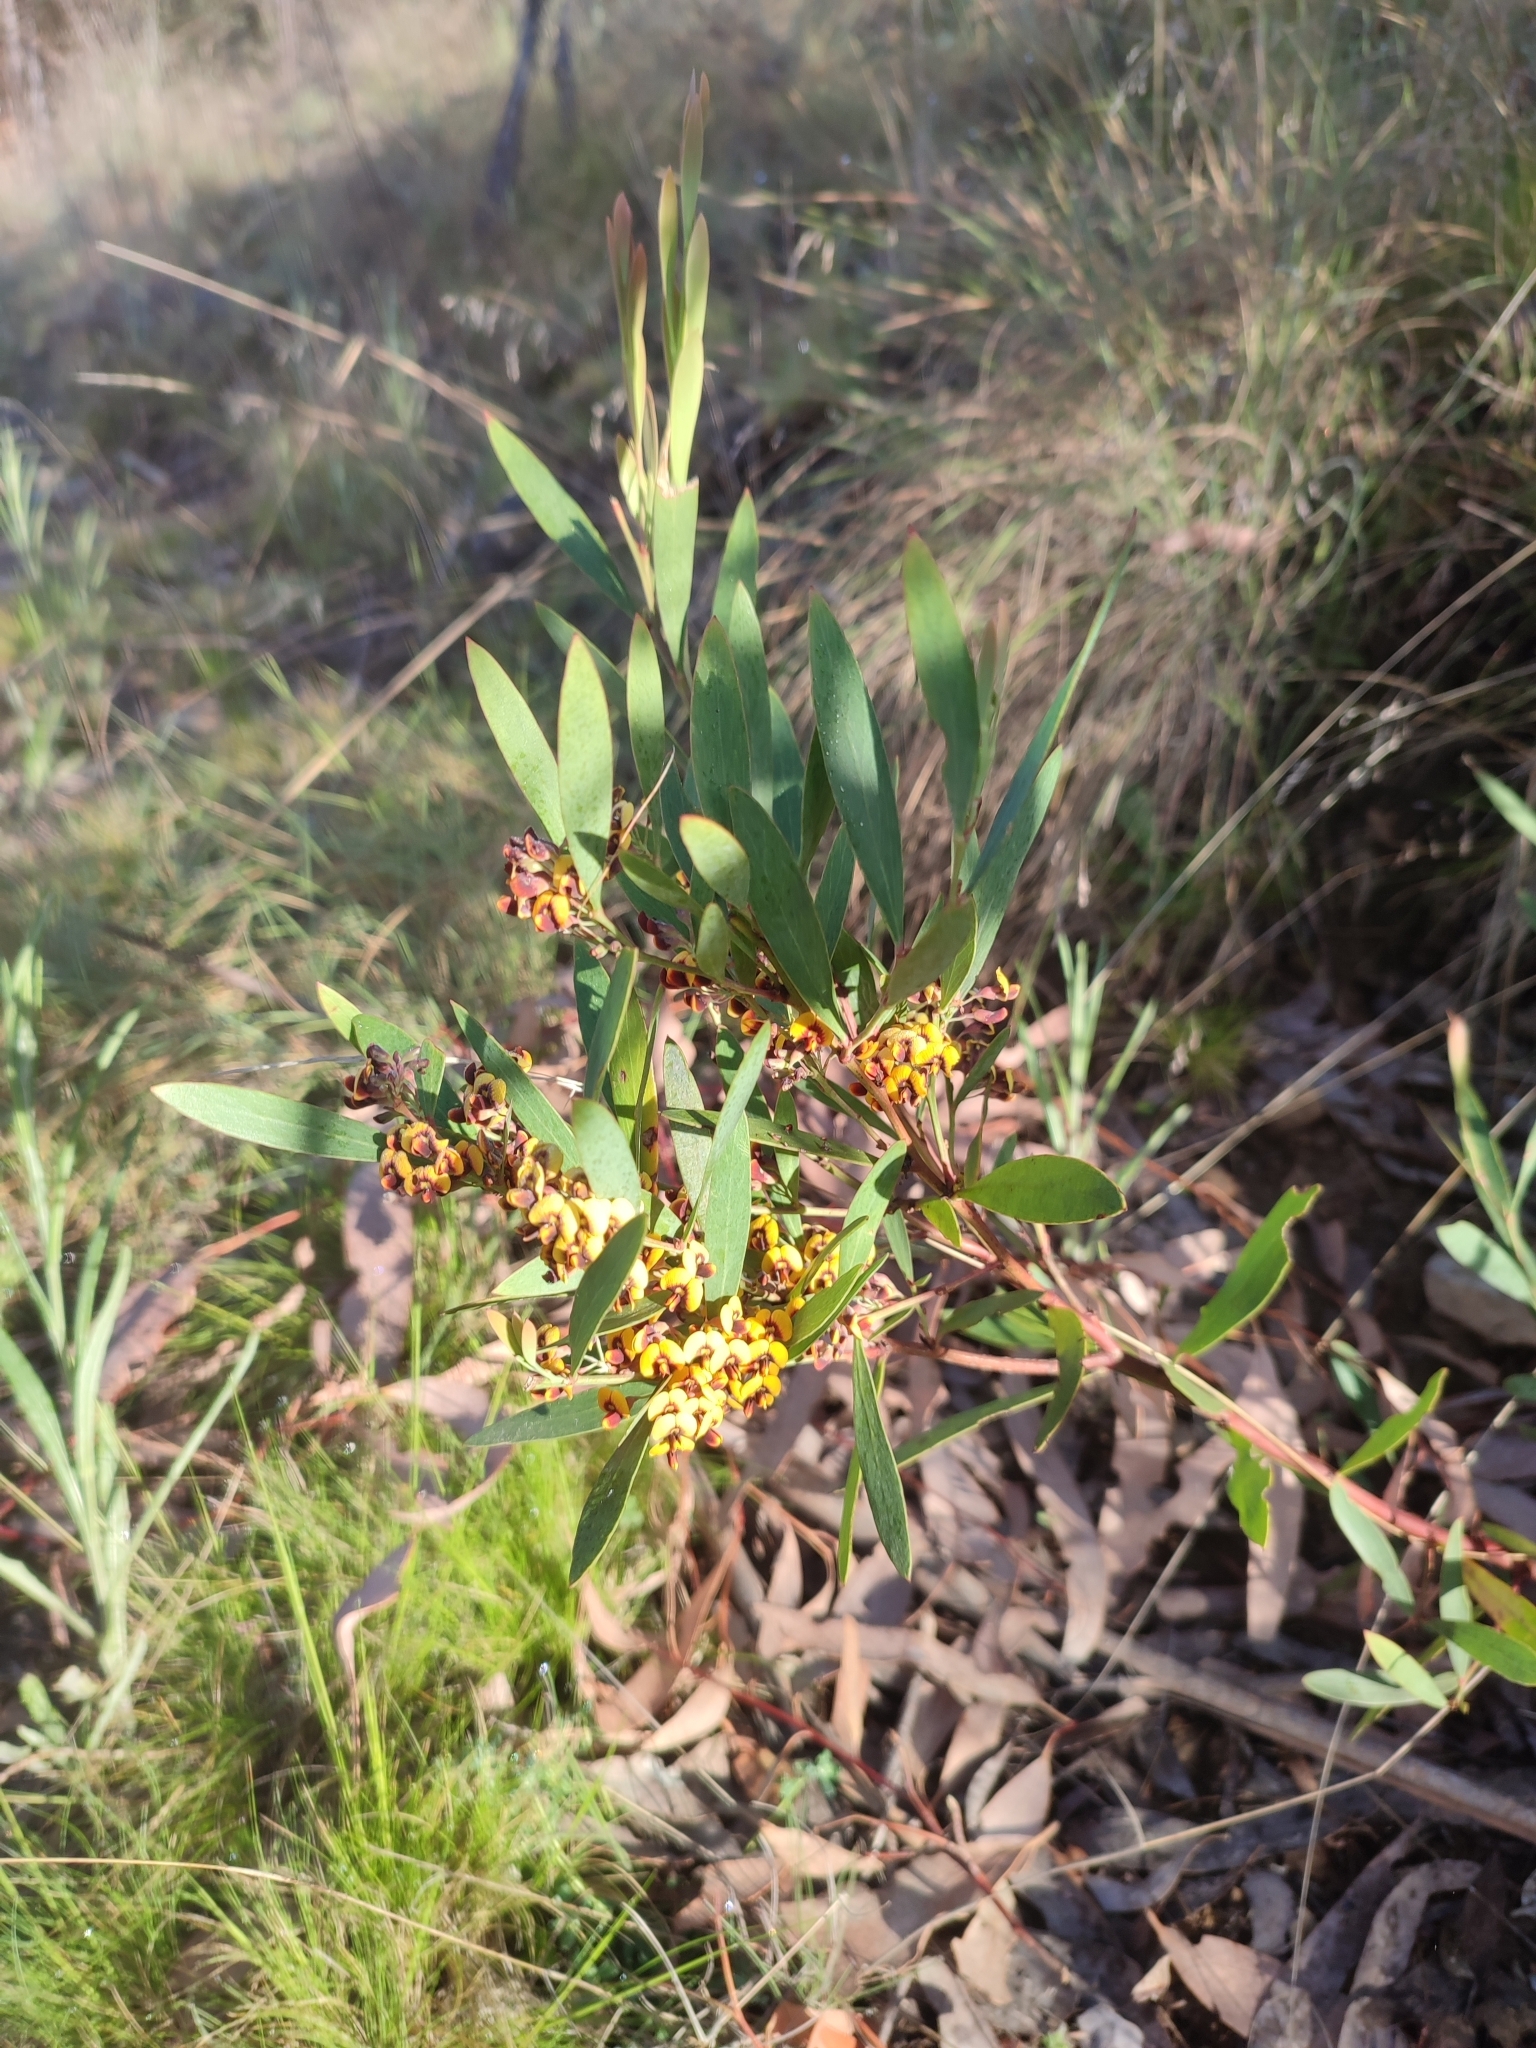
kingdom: Plantae
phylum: Tracheophyta
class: Magnoliopsida
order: Fabales
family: Fabaceae
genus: Daviesia
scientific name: Daviesia mimosoides
